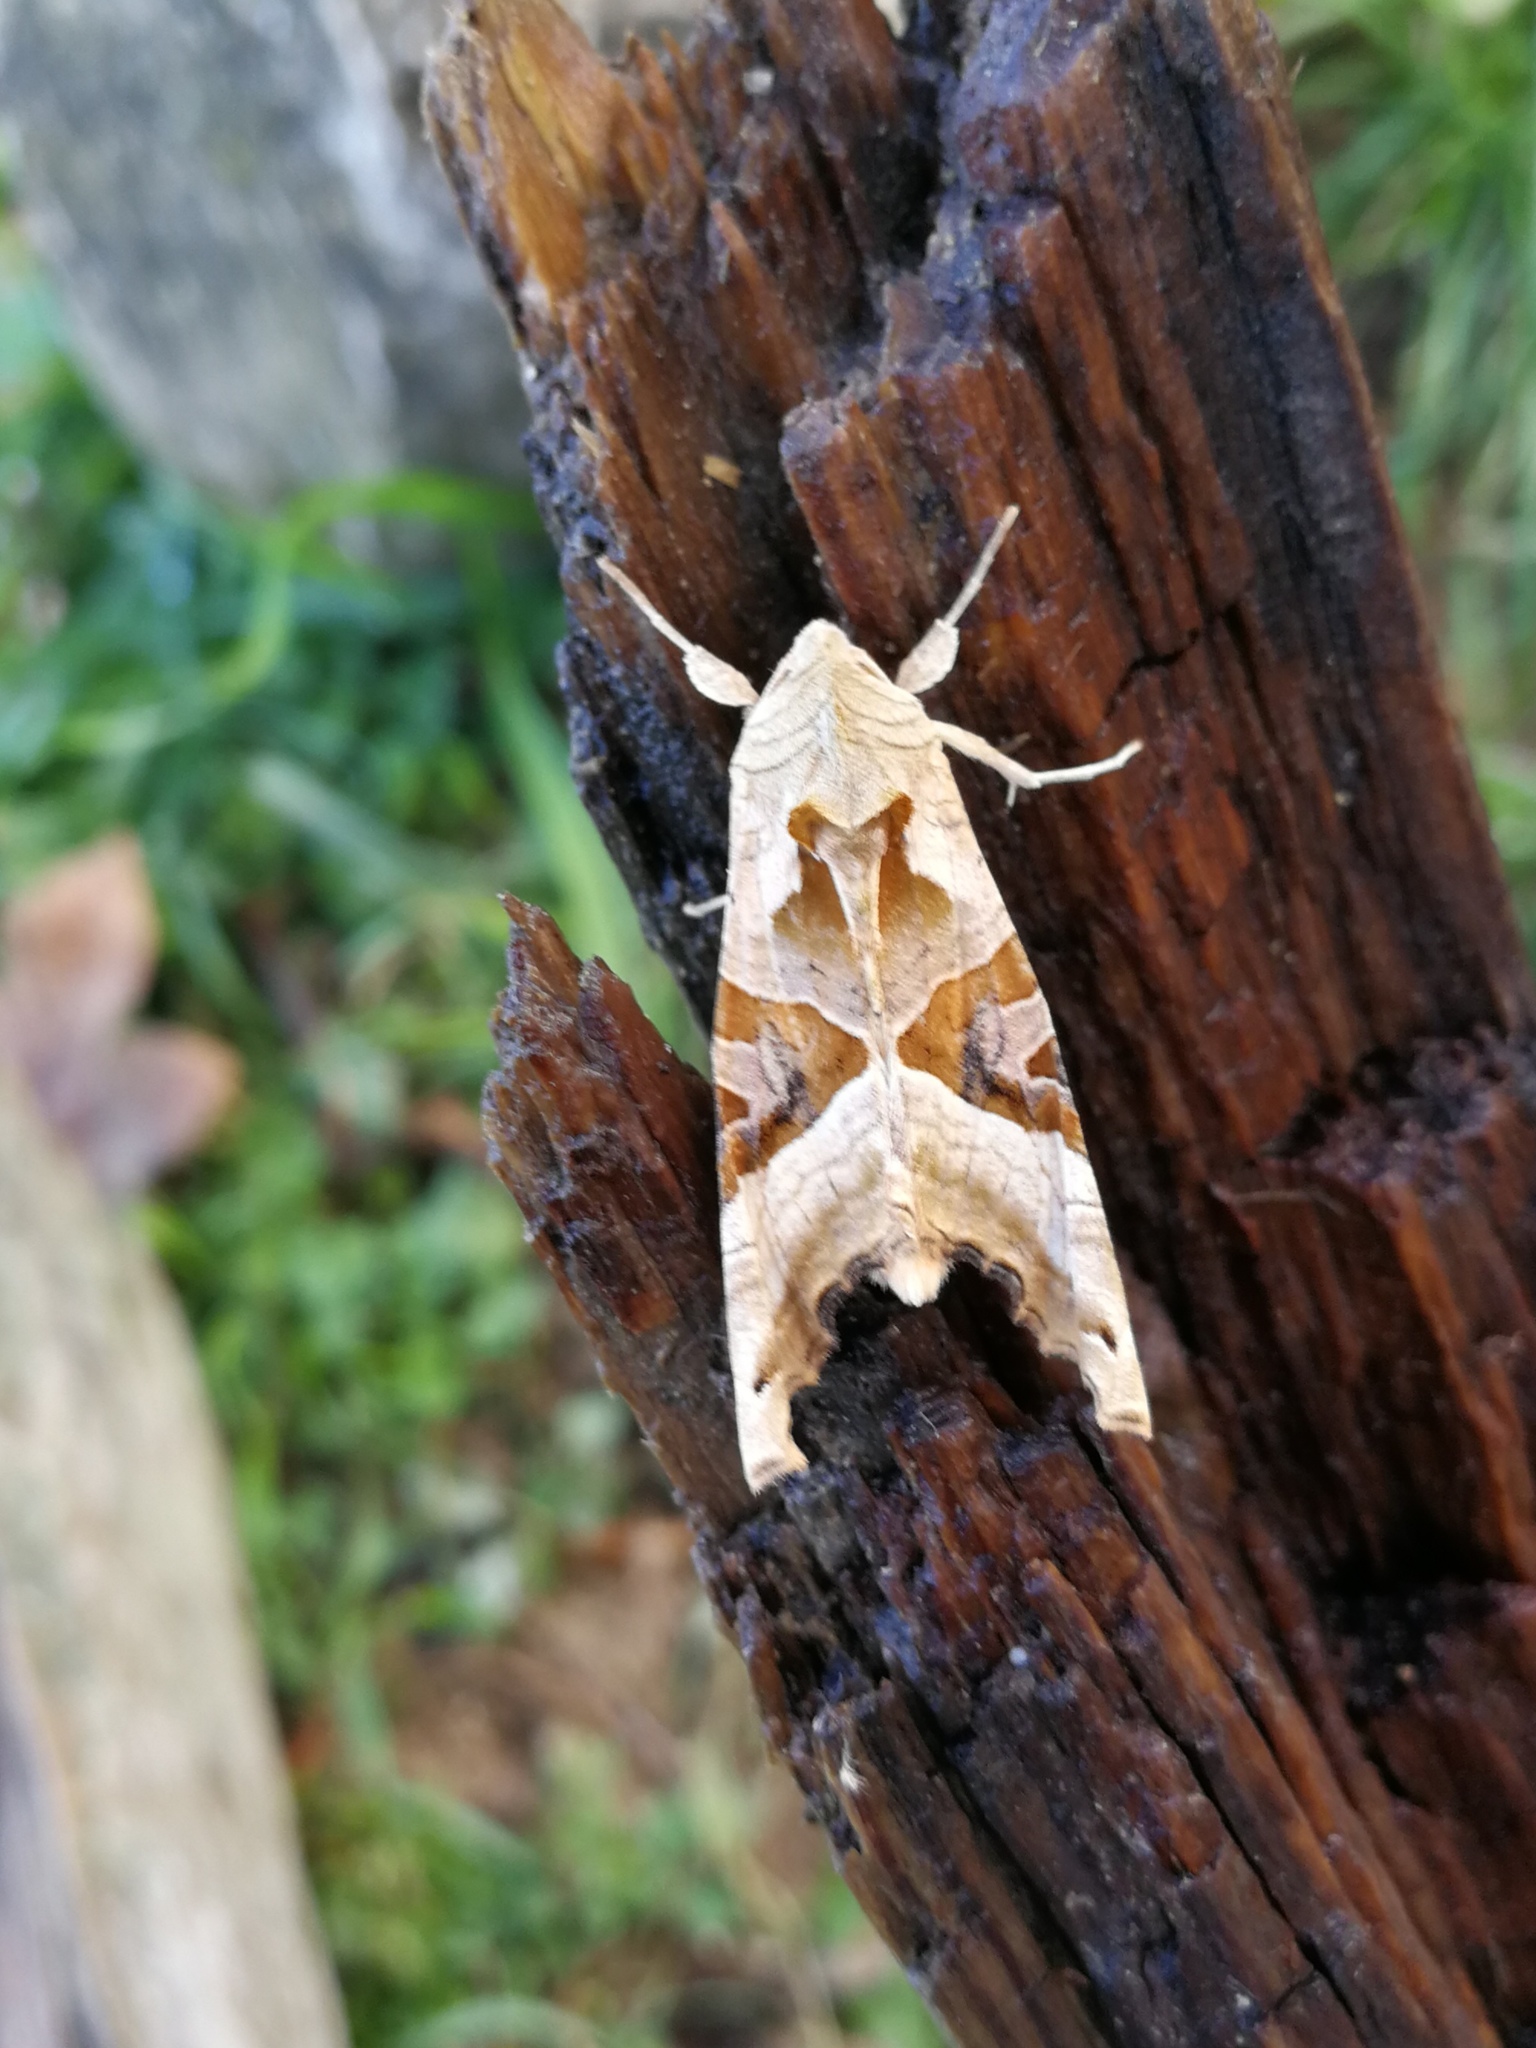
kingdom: Animalia
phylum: Arthropoda
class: Insecta
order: Lepidoptera
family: Noctuidae
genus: Phlogophora
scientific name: Phlogophora meticulosa
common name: Angle shades
